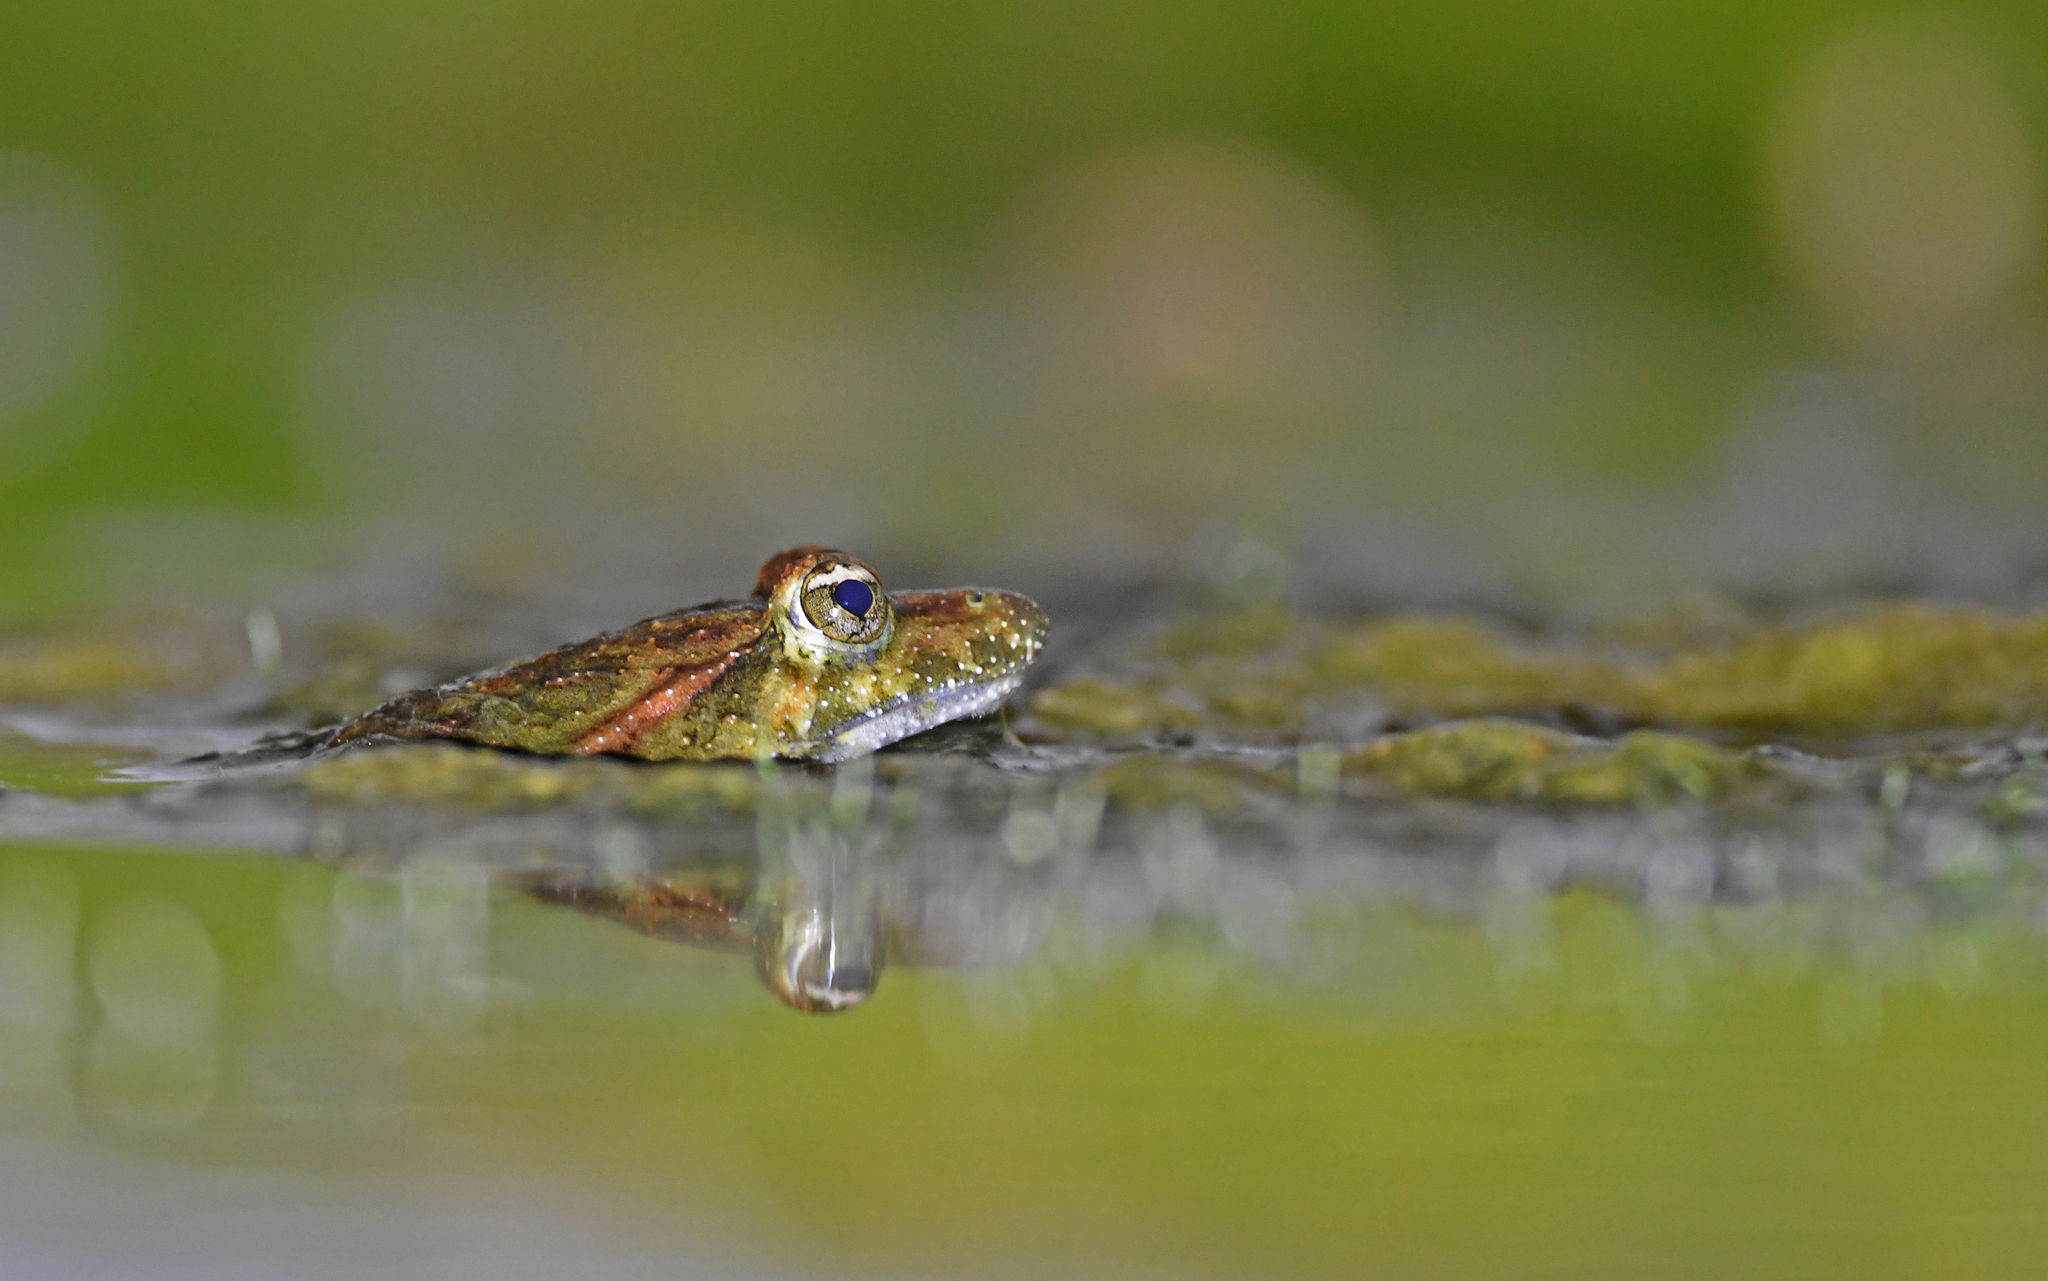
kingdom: Animalia
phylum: Chordata
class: Amphibia
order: Anura
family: Alytidae
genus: Discoglossus
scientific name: Discoglossus sardus
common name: Sardinia painted frog
